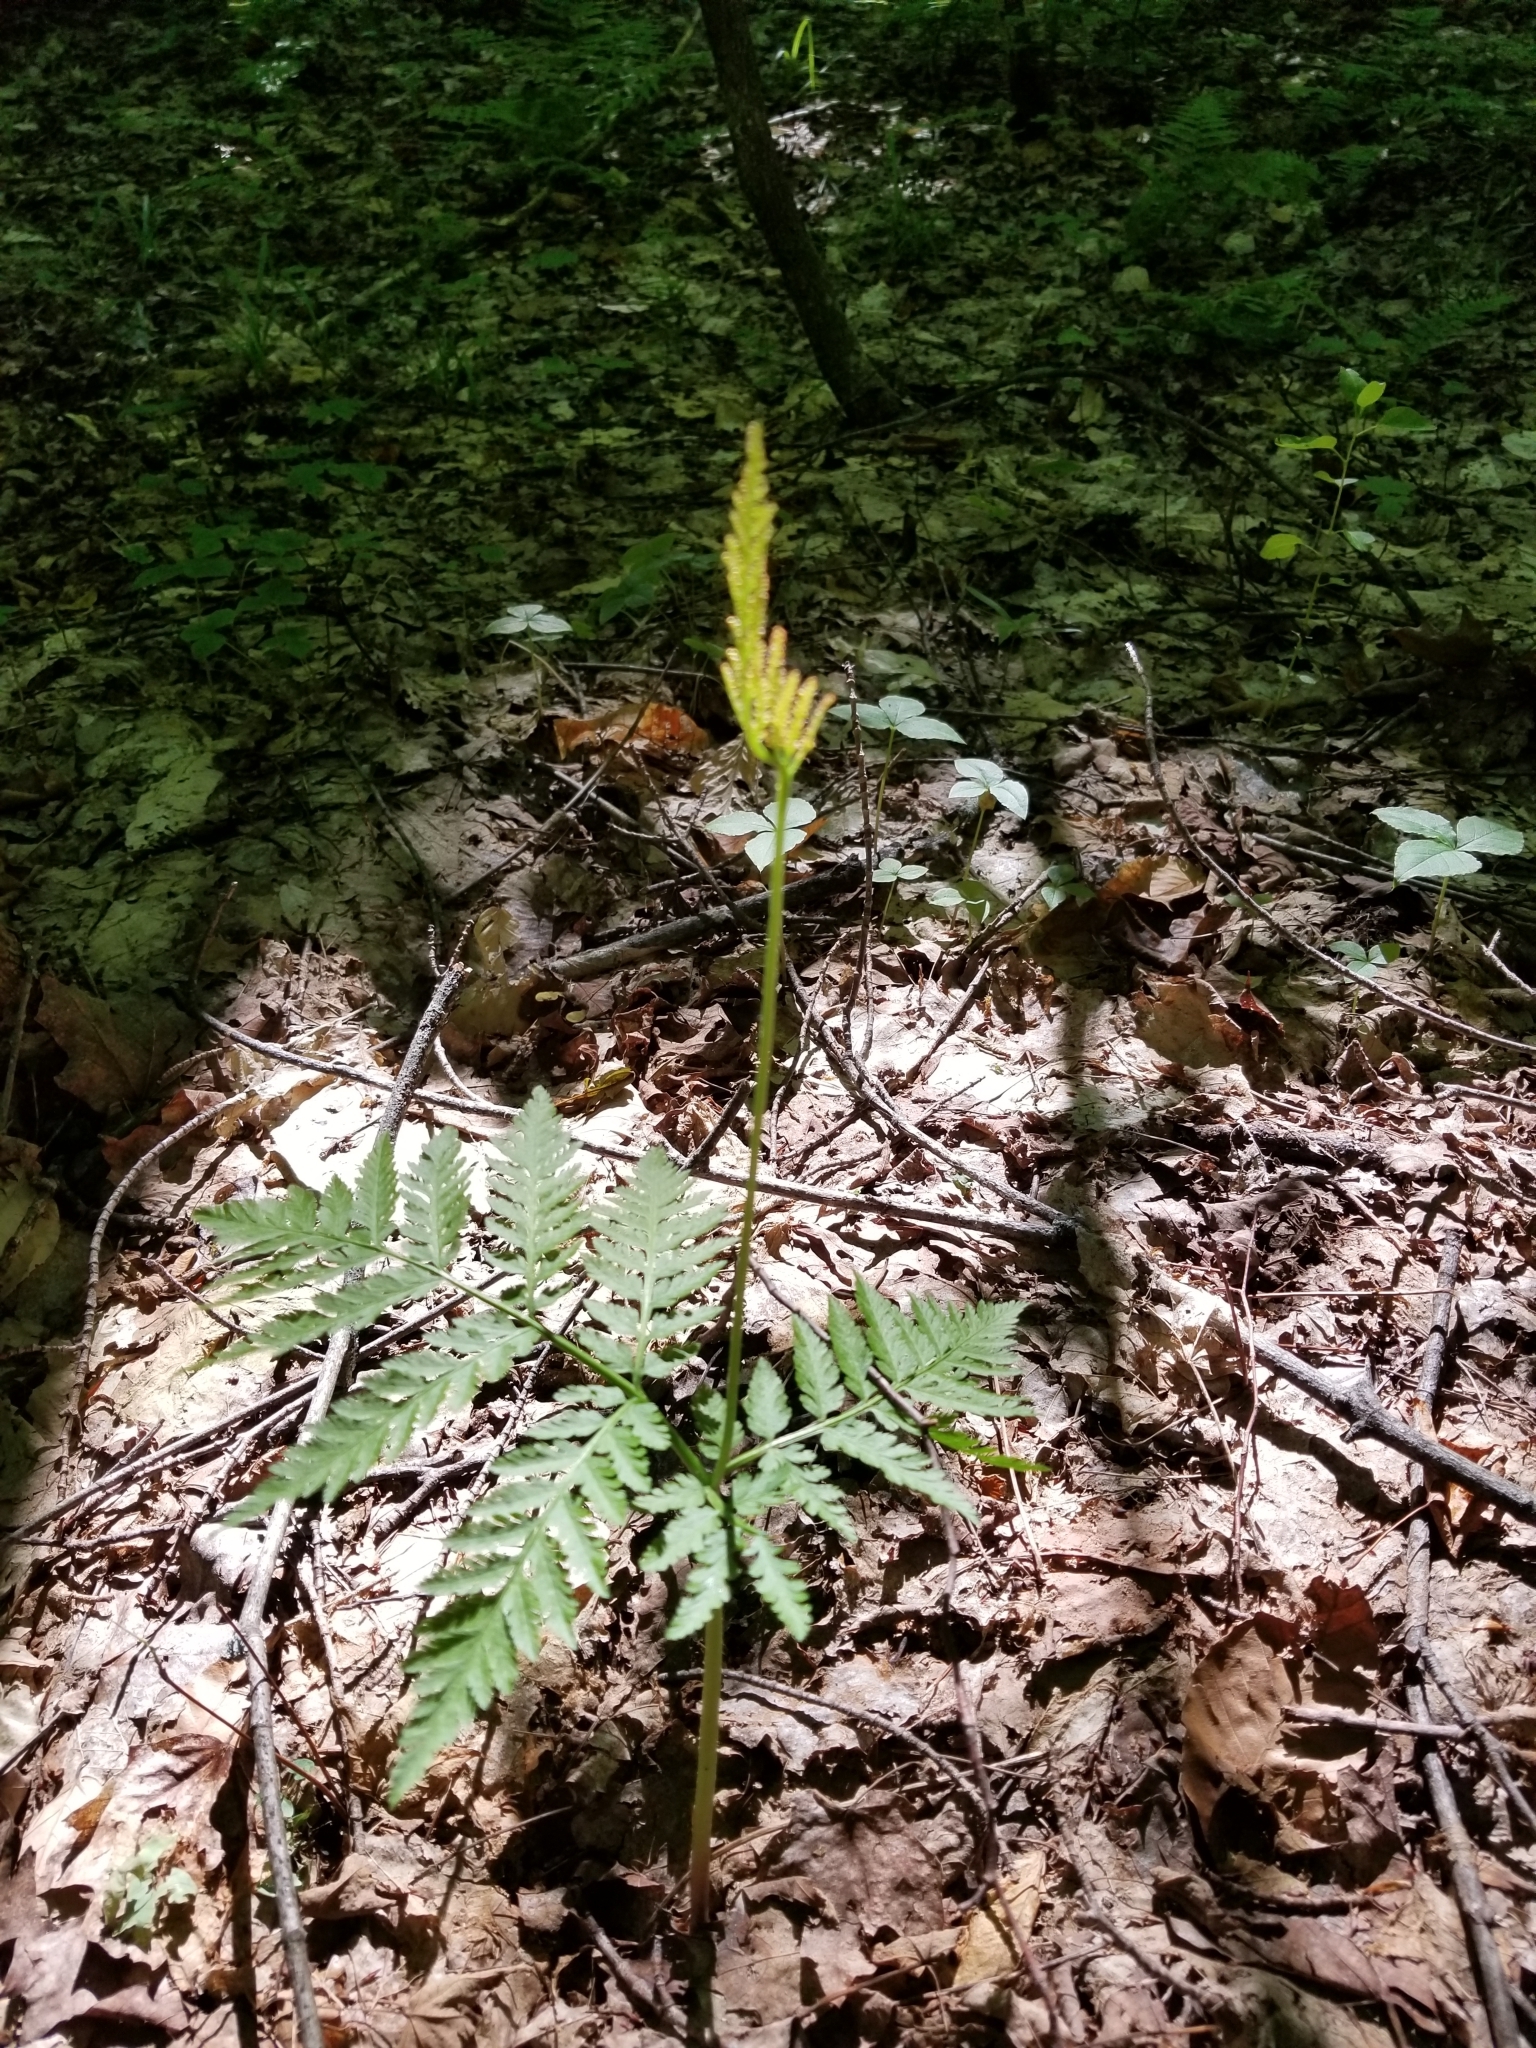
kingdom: Plantae
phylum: Tracheophyta
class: Polypodiopsida
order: Ophioglossales
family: Ophioglossaceae
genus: Botrypus
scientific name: Botrypus virginianus
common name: Common grapefern
